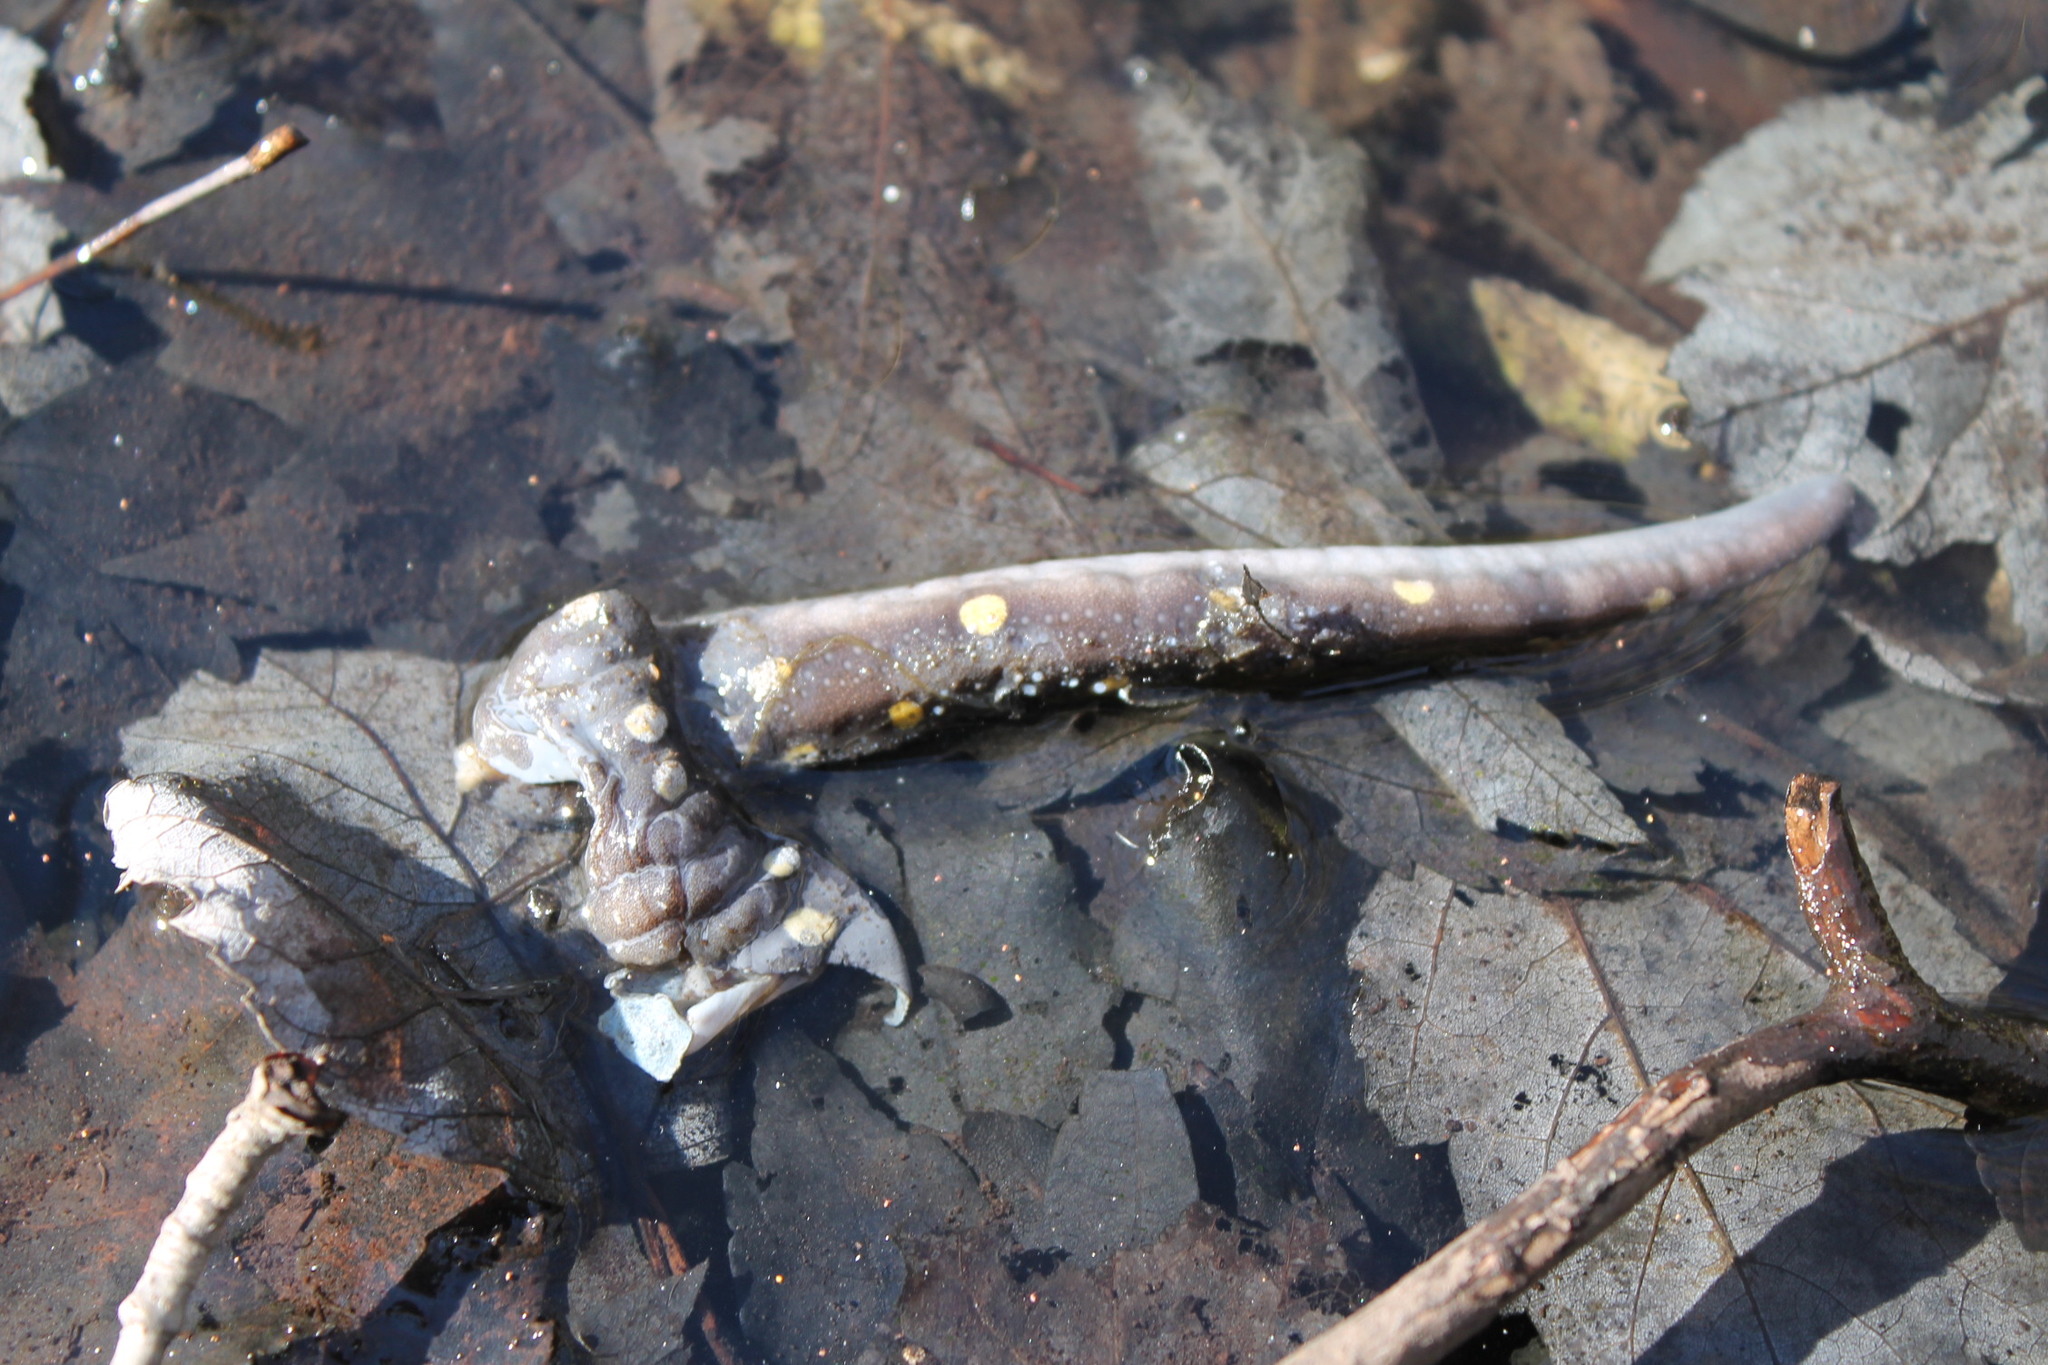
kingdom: Animalia
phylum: Chordata
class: Amphibia
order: Caudata
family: Ambystomatidae
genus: Ambystoma
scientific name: Ambystoma maculatum
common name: Spotted salamander
